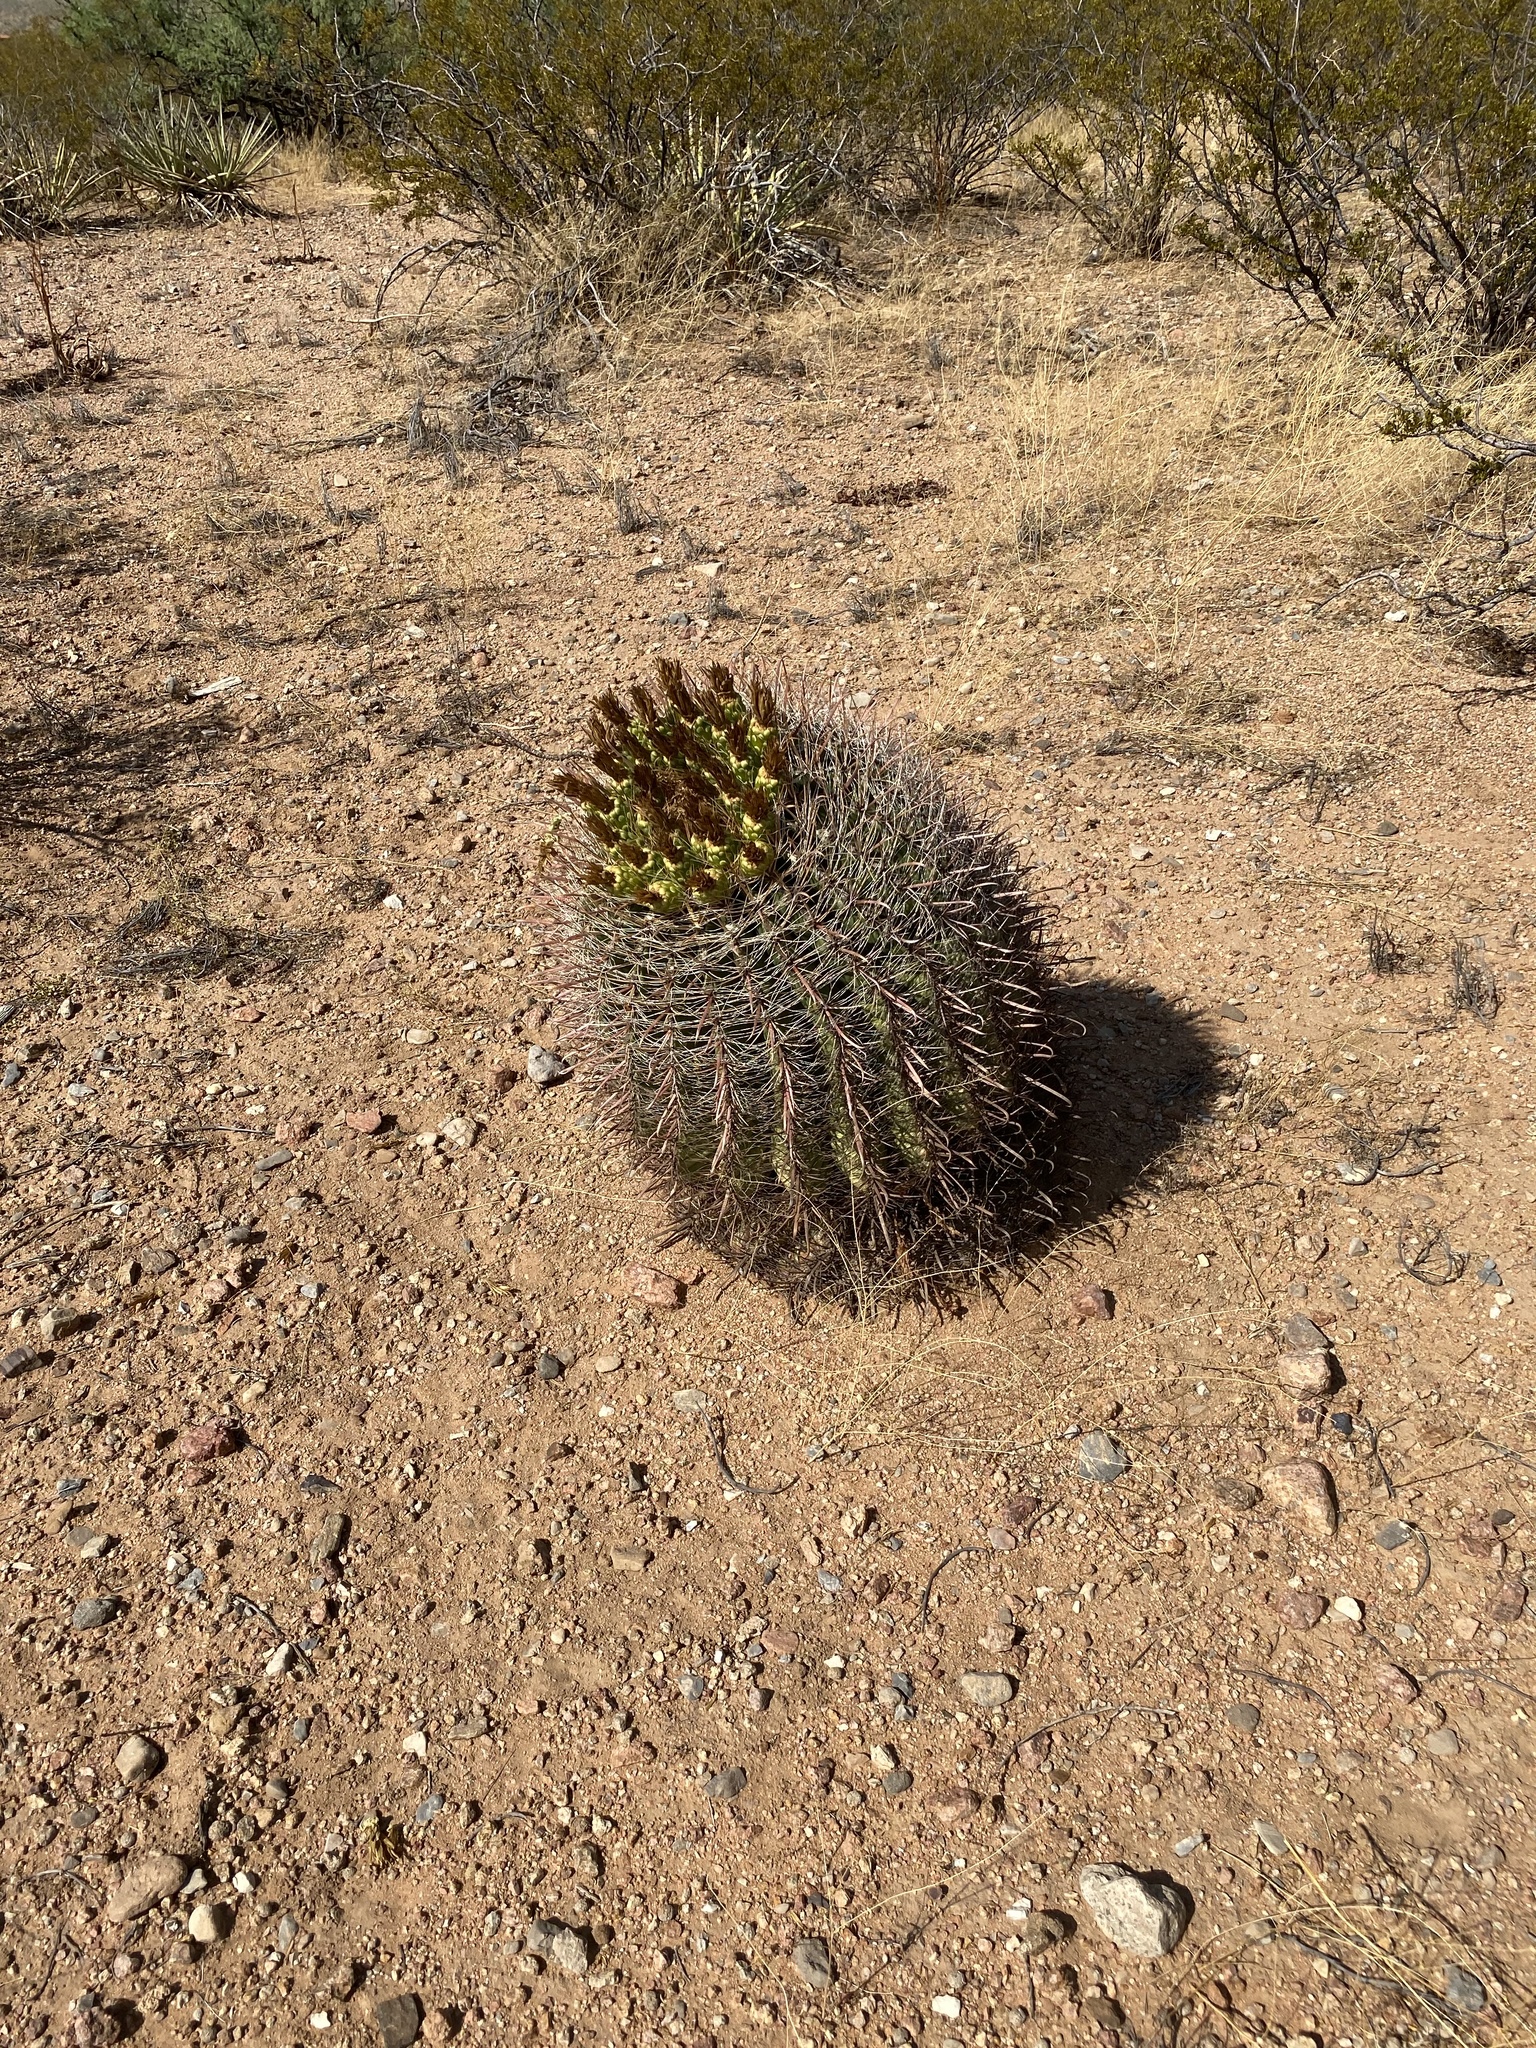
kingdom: Plantae
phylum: Tracheophyta
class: Magnoliopsida
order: Caryophyllales
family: Cactaceae
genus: Ferocactus
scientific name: Ferocactus wislizeni
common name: Candy barrel cactus
